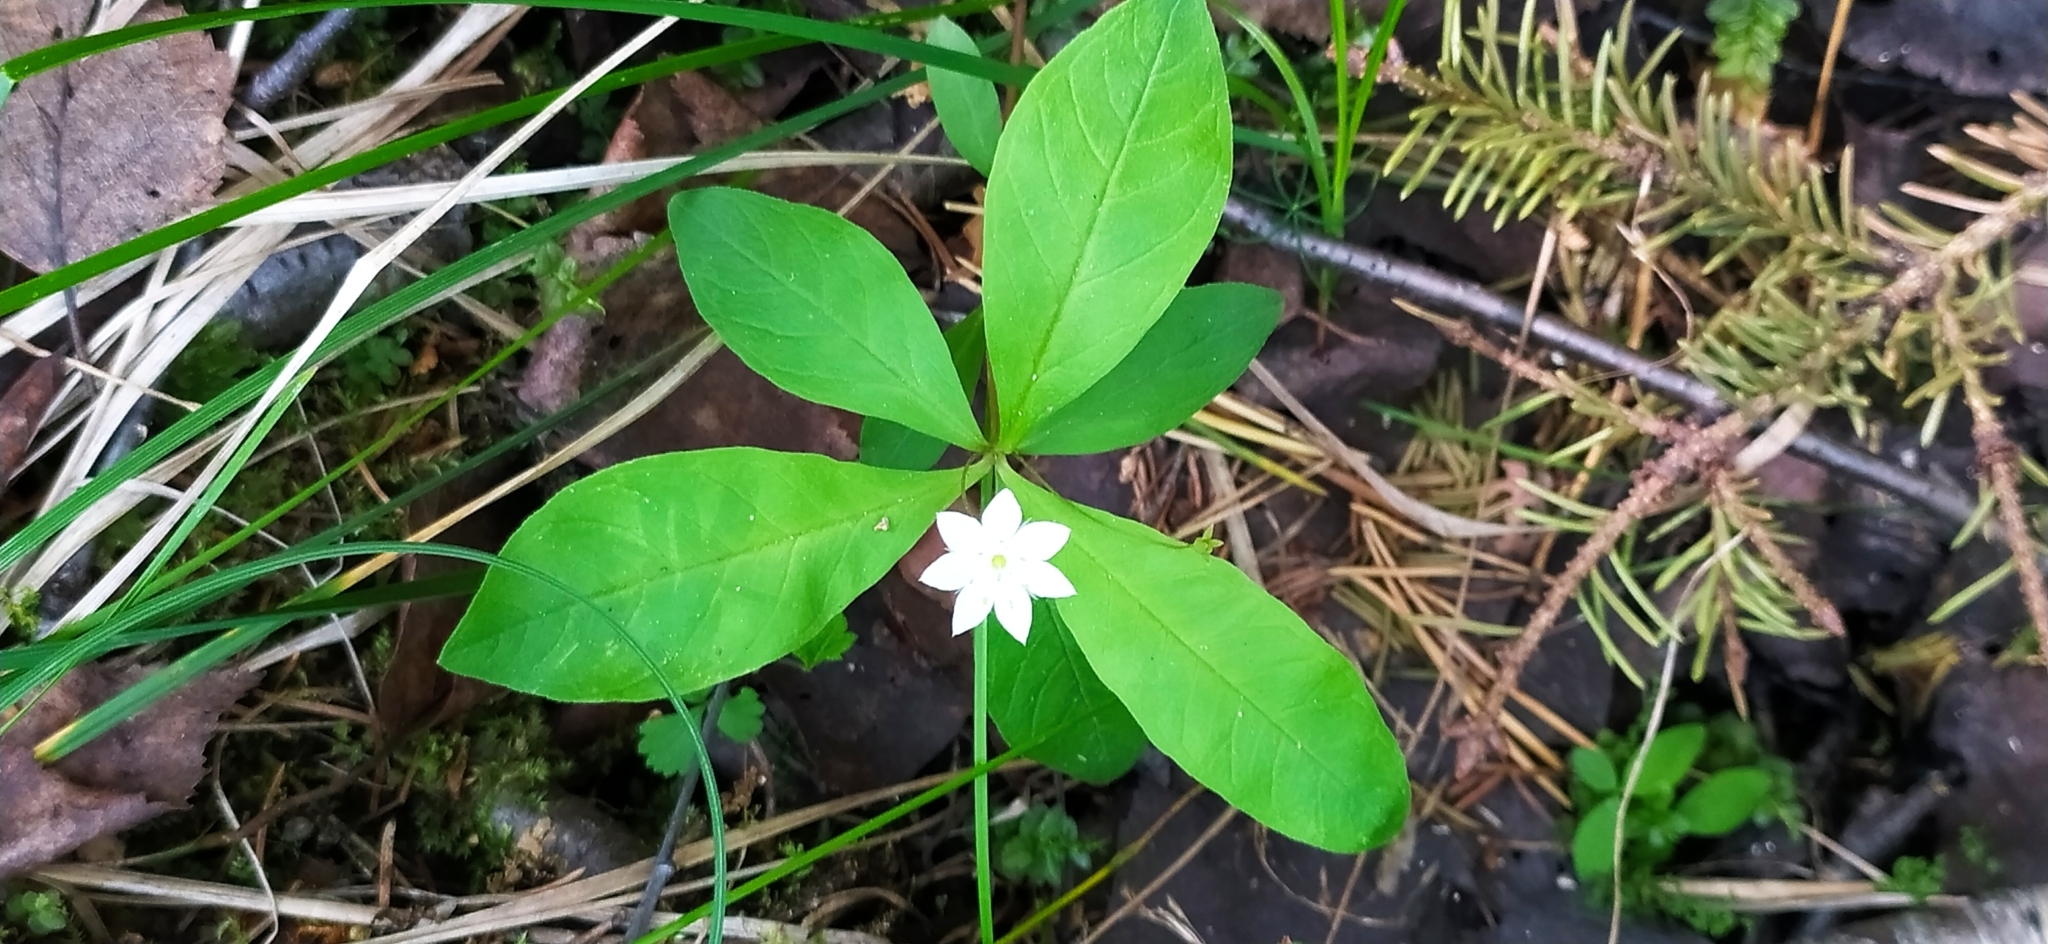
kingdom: Plantae
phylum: Tracheophyta
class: Magnoliopsida
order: Ericales
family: Primulaceae
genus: Lysimachia
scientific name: Lysimachia europaea
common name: Arctic starflower
